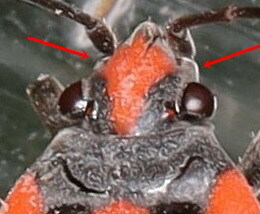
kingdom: Animalia
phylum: Arthropoda
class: Insecta
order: Hemiptera
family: Lygaeidae
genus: Lygaeus
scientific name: Lygaeus equestris
